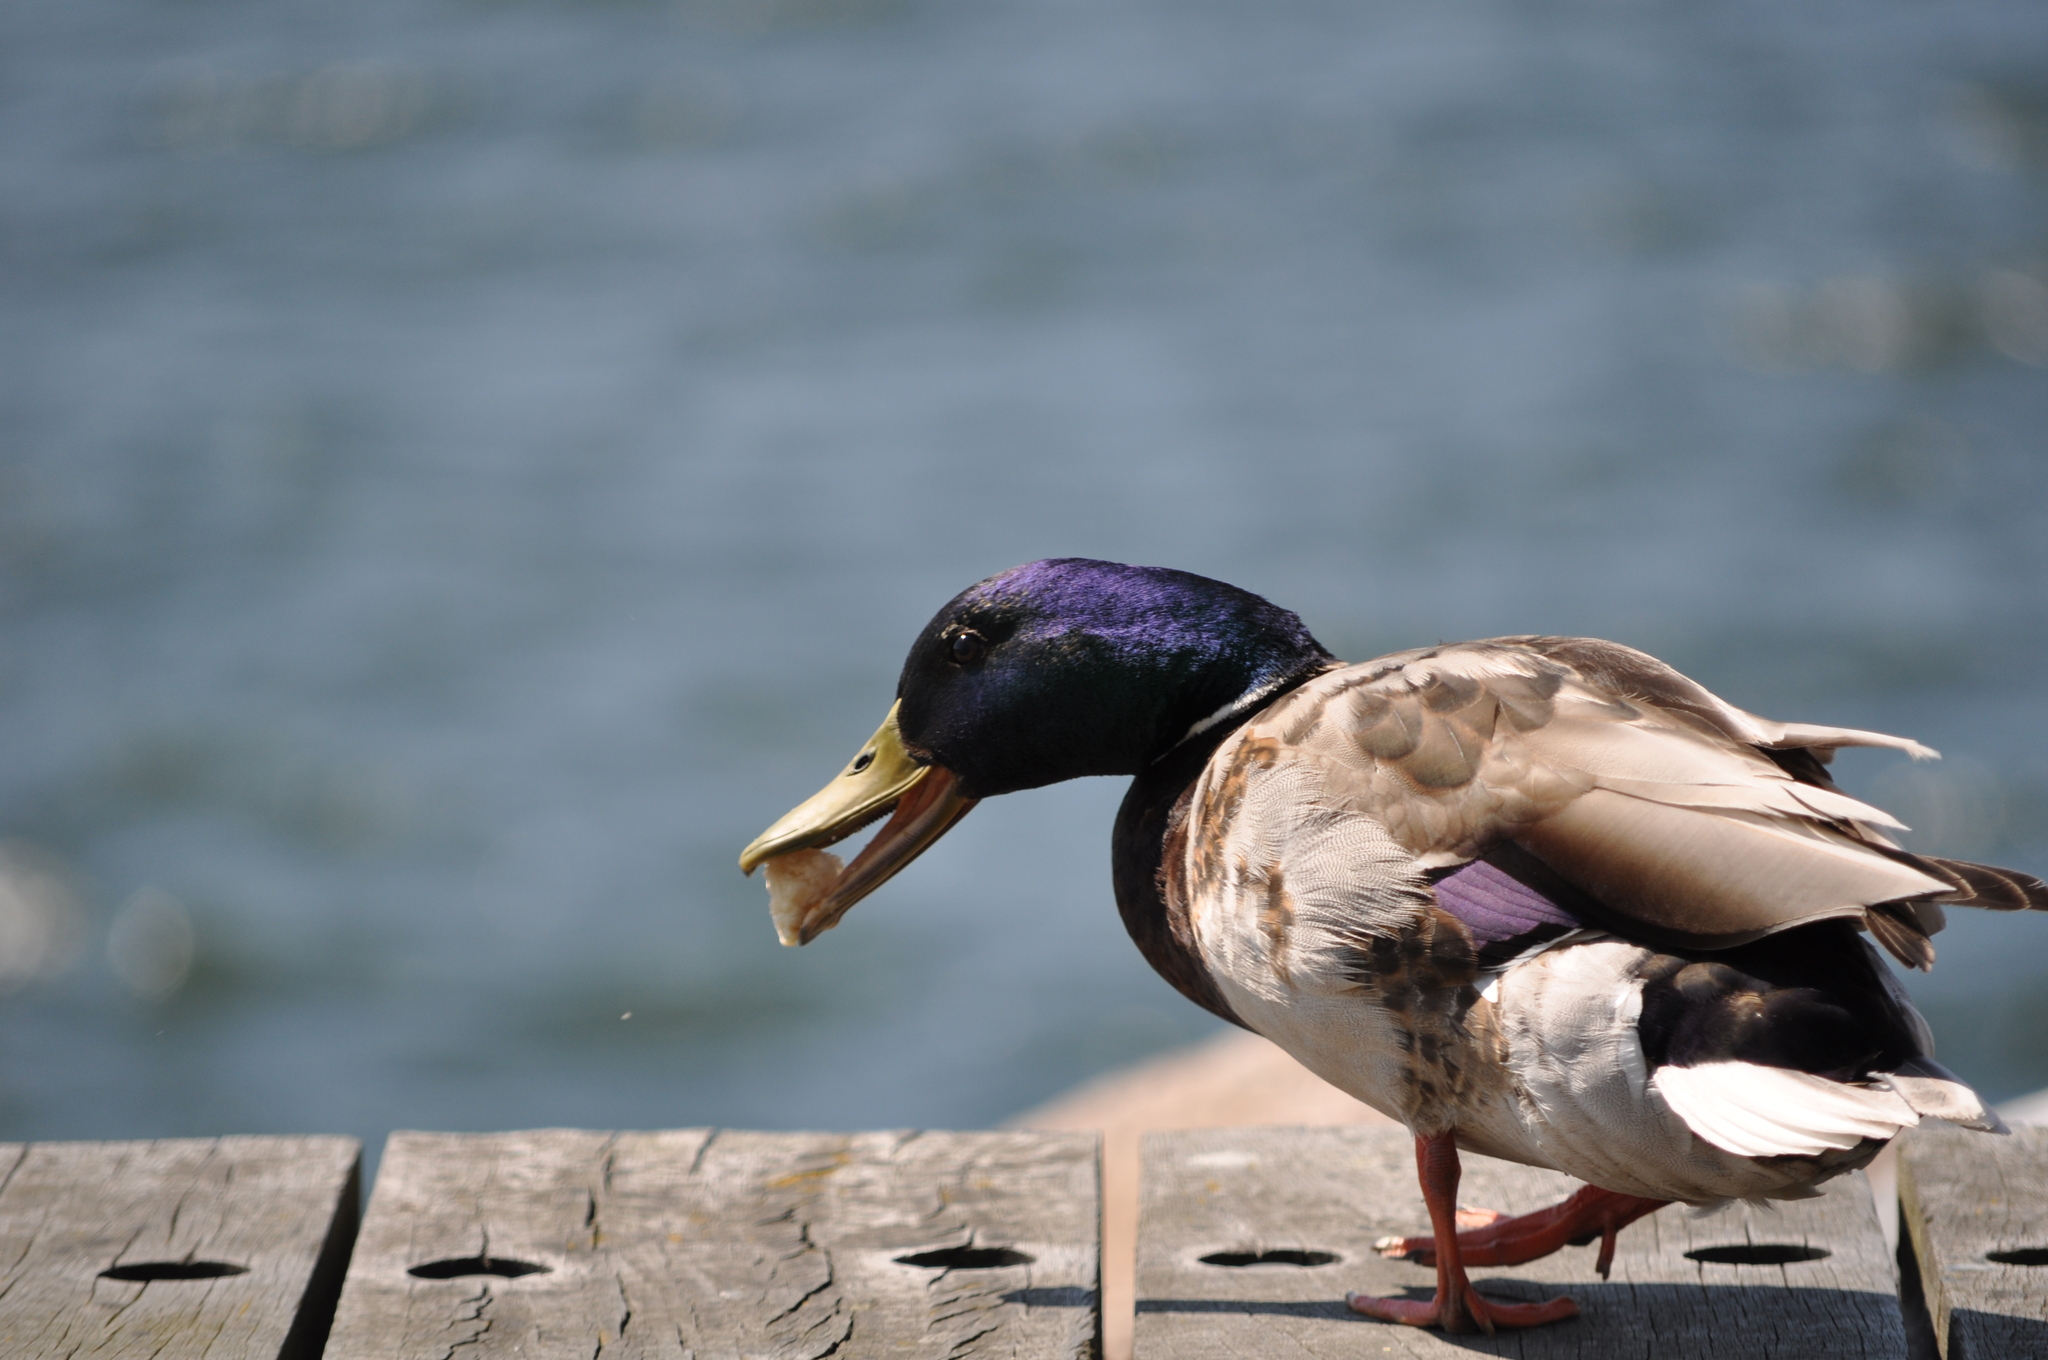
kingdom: Animalia
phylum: Chordata
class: Aves
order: Anseriformes
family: Anatidae
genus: Anas
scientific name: Anas platyrhynchos
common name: Mallard
